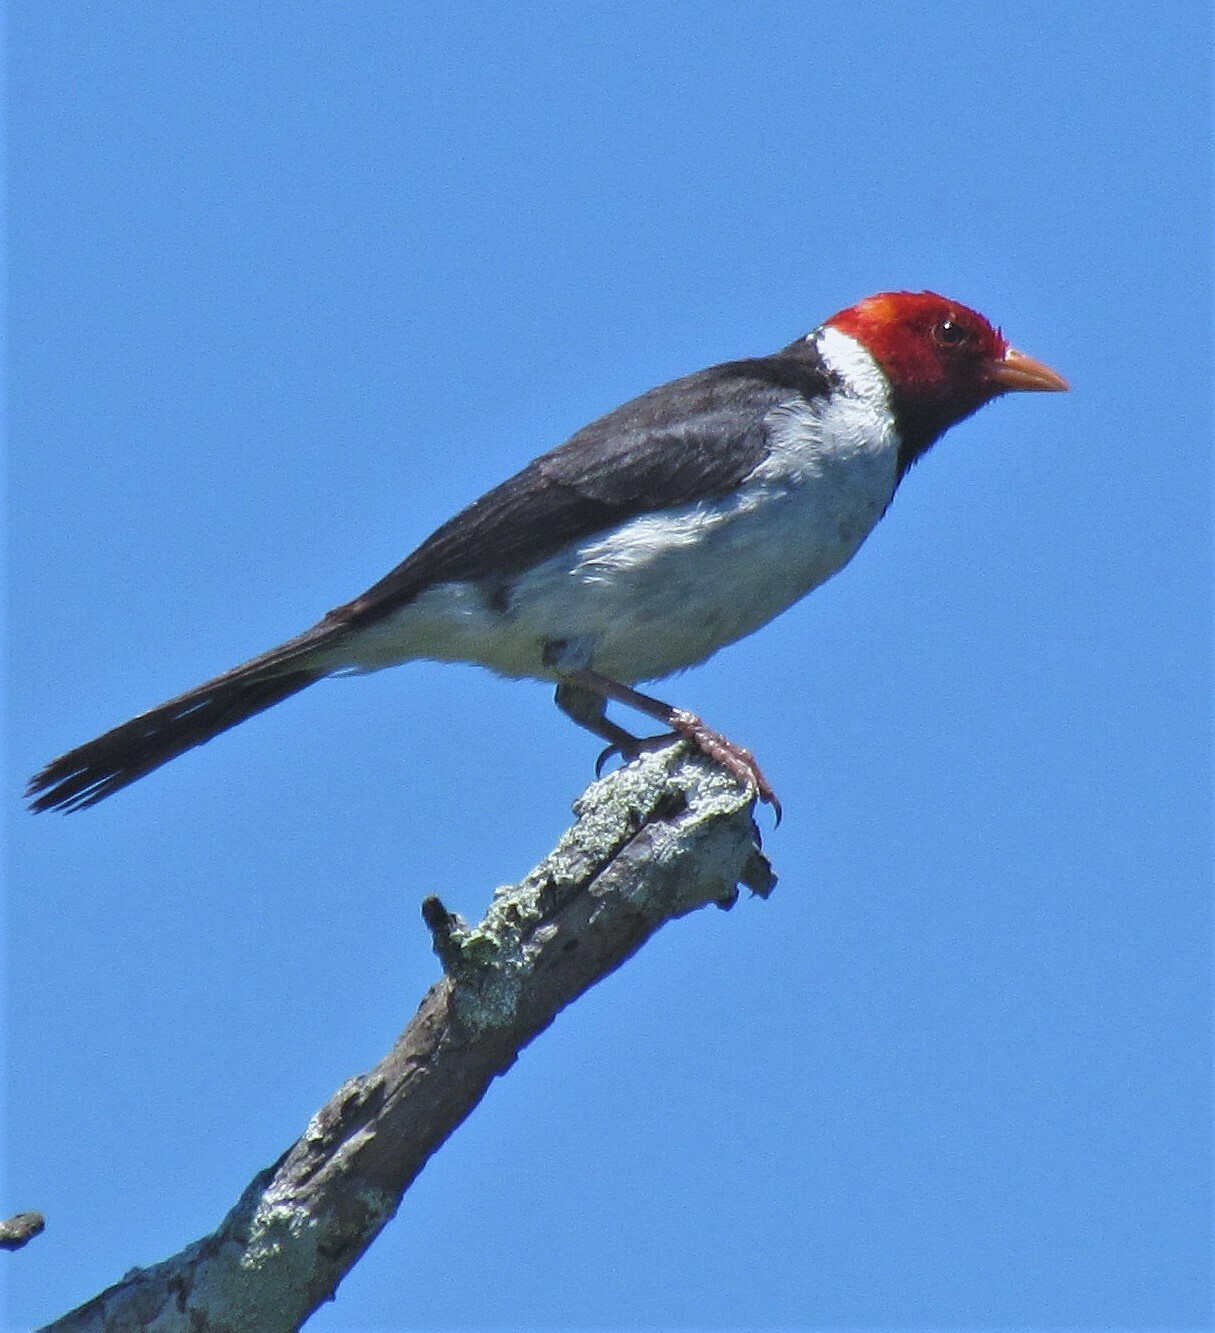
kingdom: Animalia
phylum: Chordata
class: Aves
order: Passeriformes
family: Thraupidae
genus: Paroaria
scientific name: Paroaria capitata
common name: Yellow-billed cardinal
